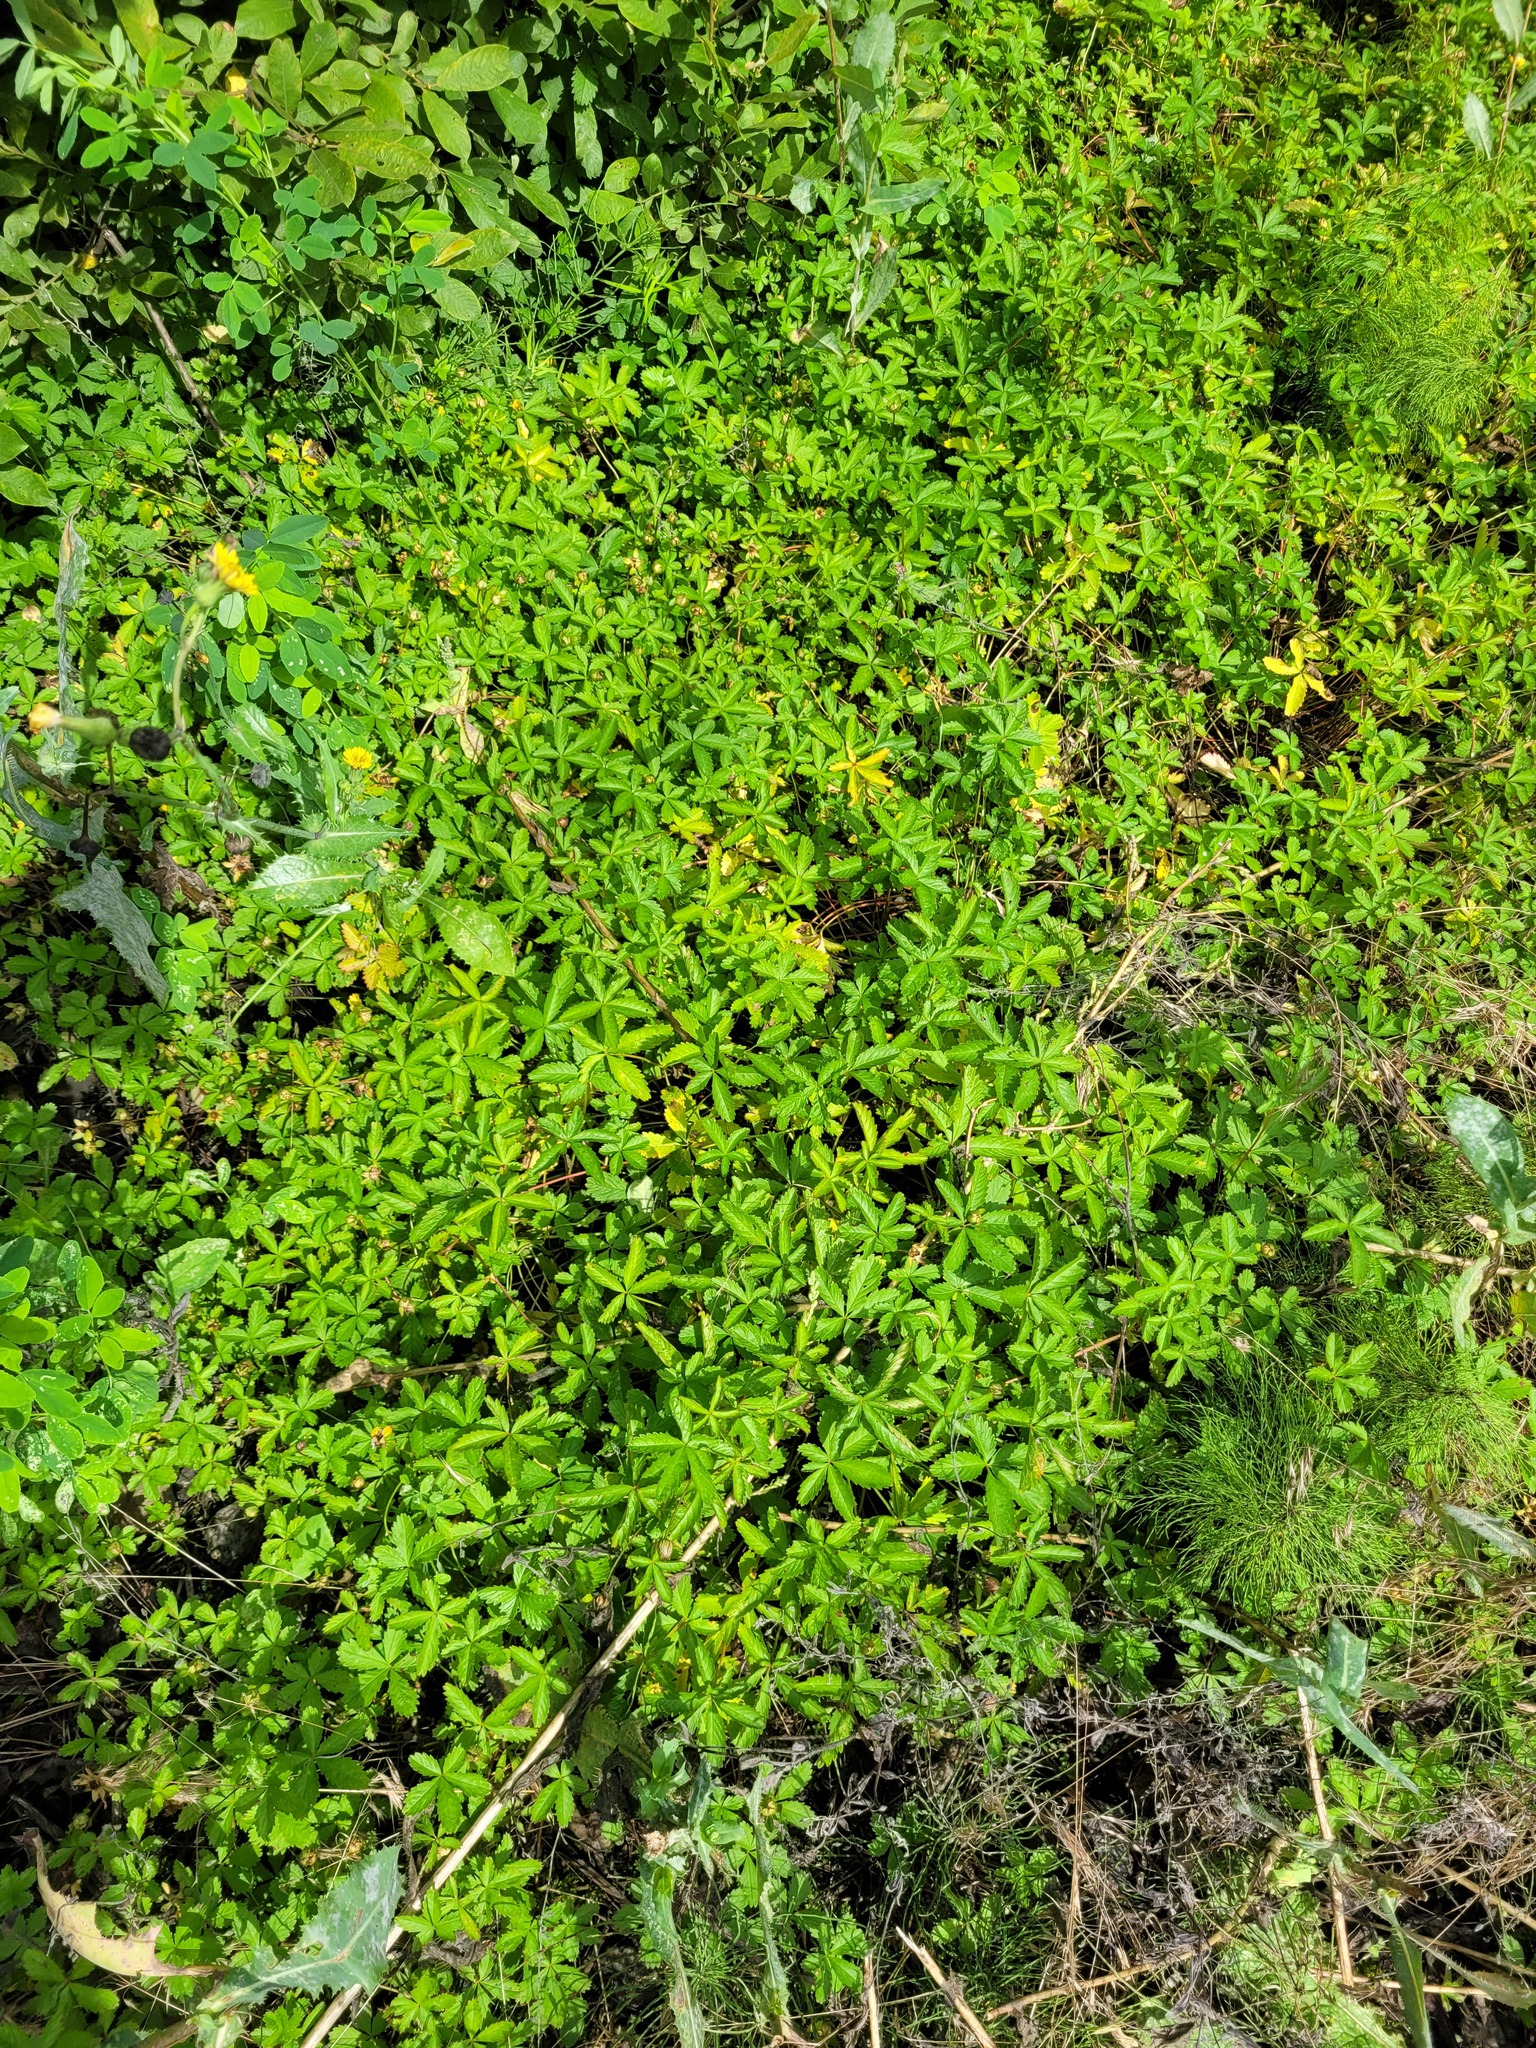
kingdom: Plantae
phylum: Tracheophyta
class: Magnoliopsida
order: Rosales
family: Rosaceae
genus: Potentilla
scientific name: Potentilla reptans
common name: Creeping cinquefoil
